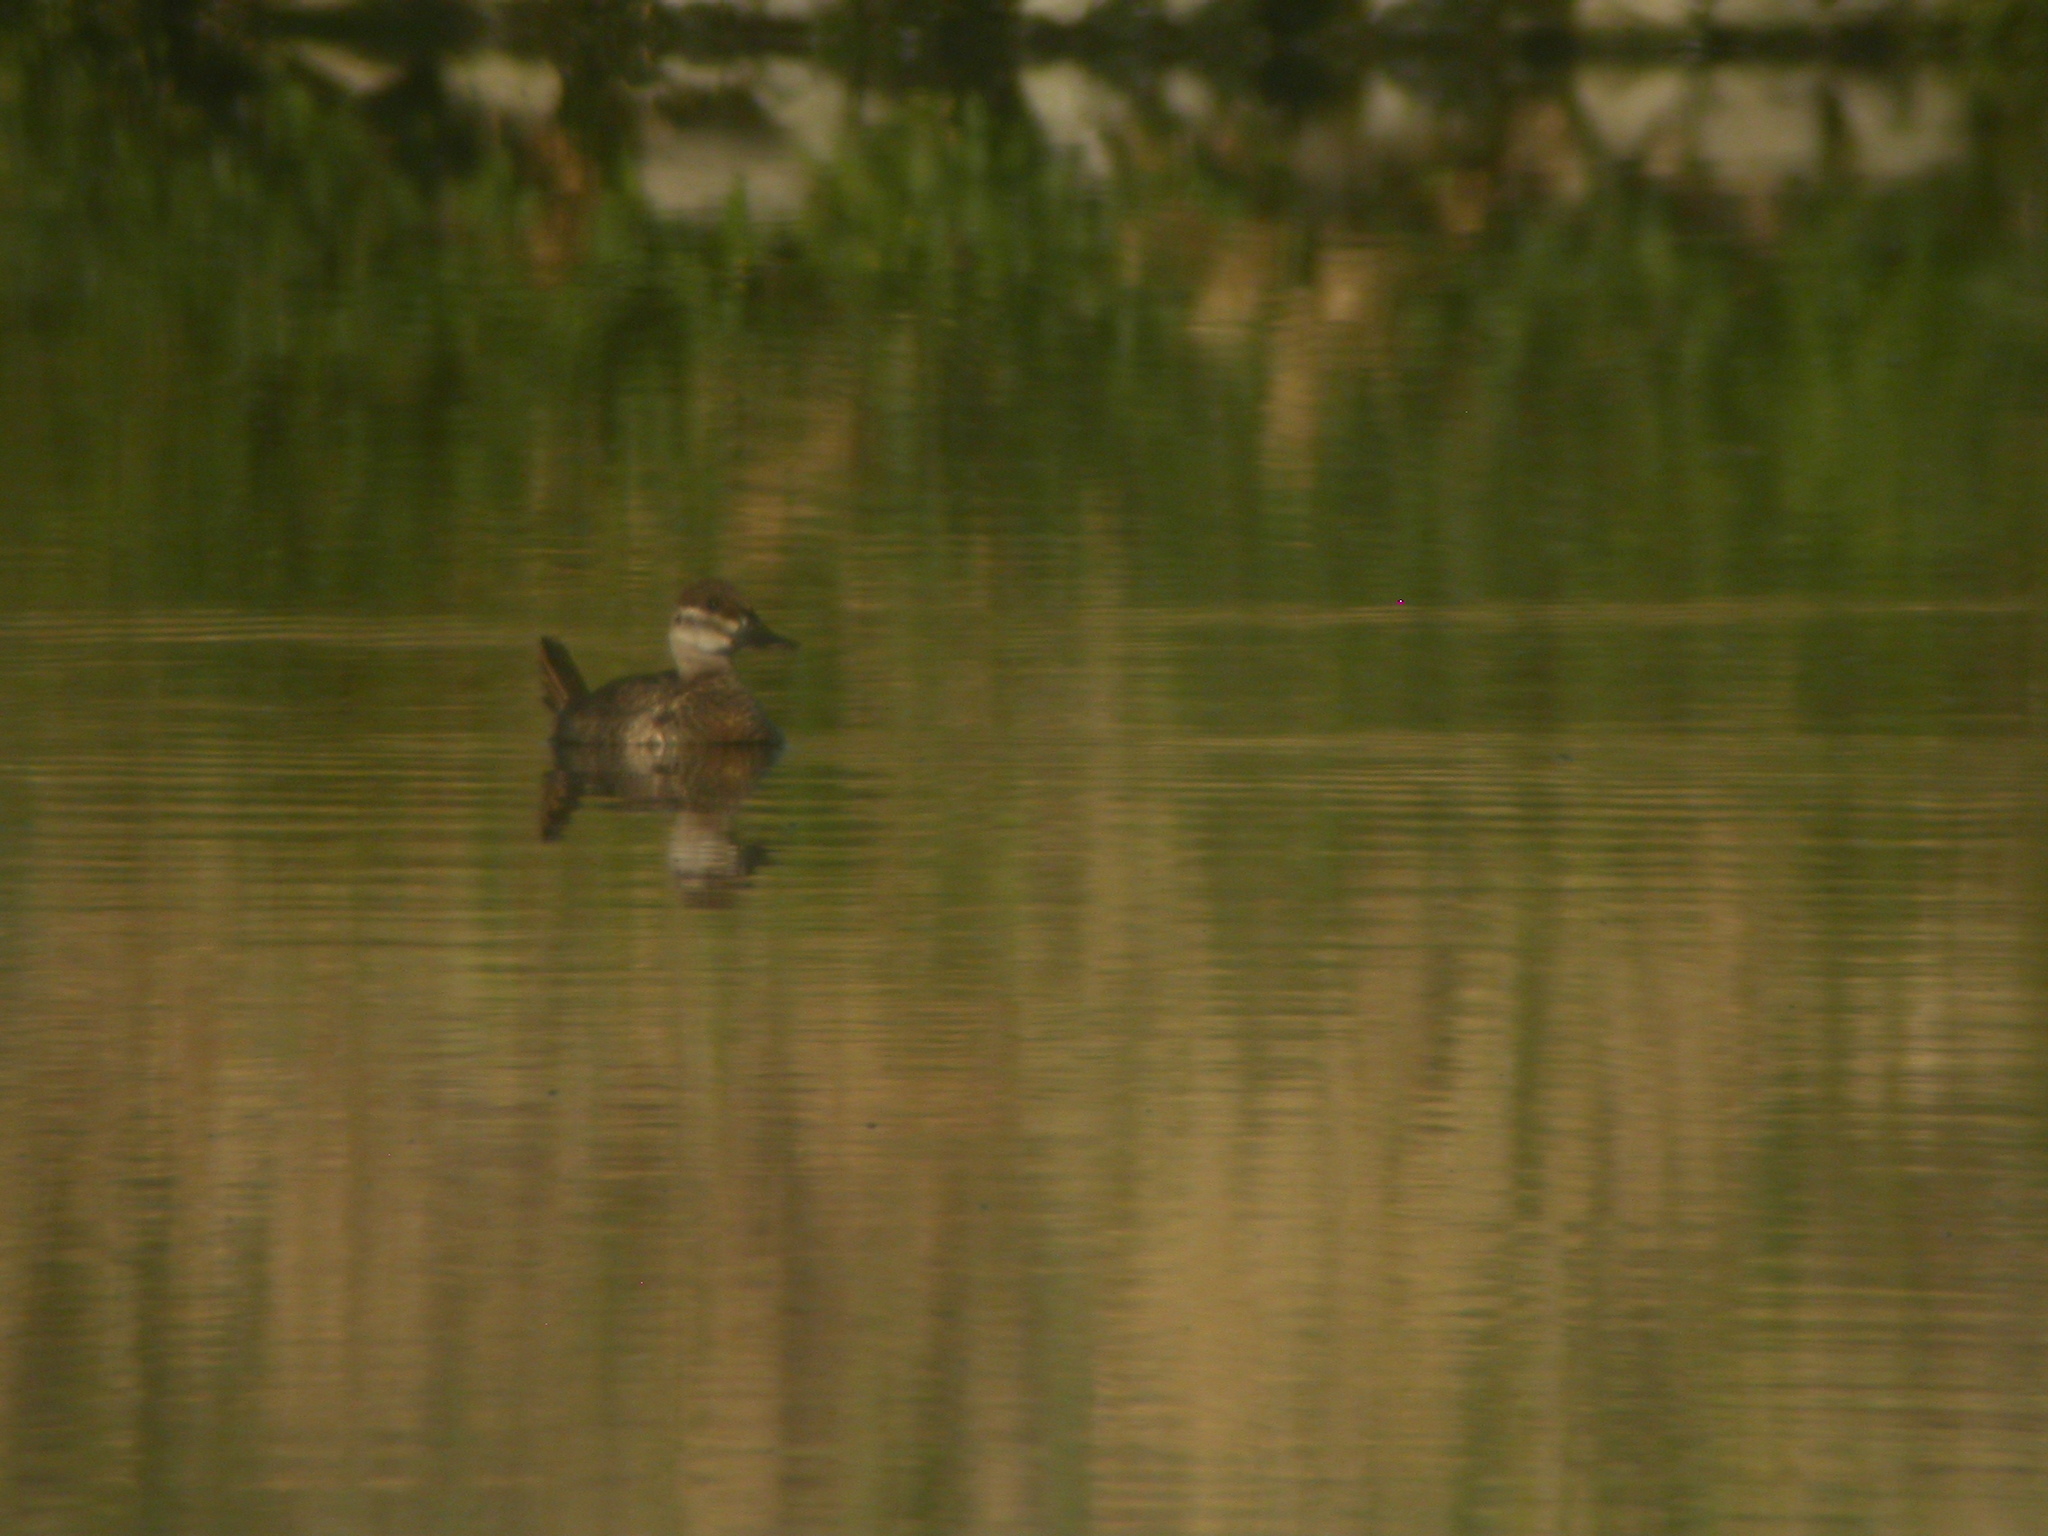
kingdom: Animalia
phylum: Chordata
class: Aves
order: Anseriformes
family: Anatidae
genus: Oxyura
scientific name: Oxyura jamaicensis
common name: Ruddy duck
